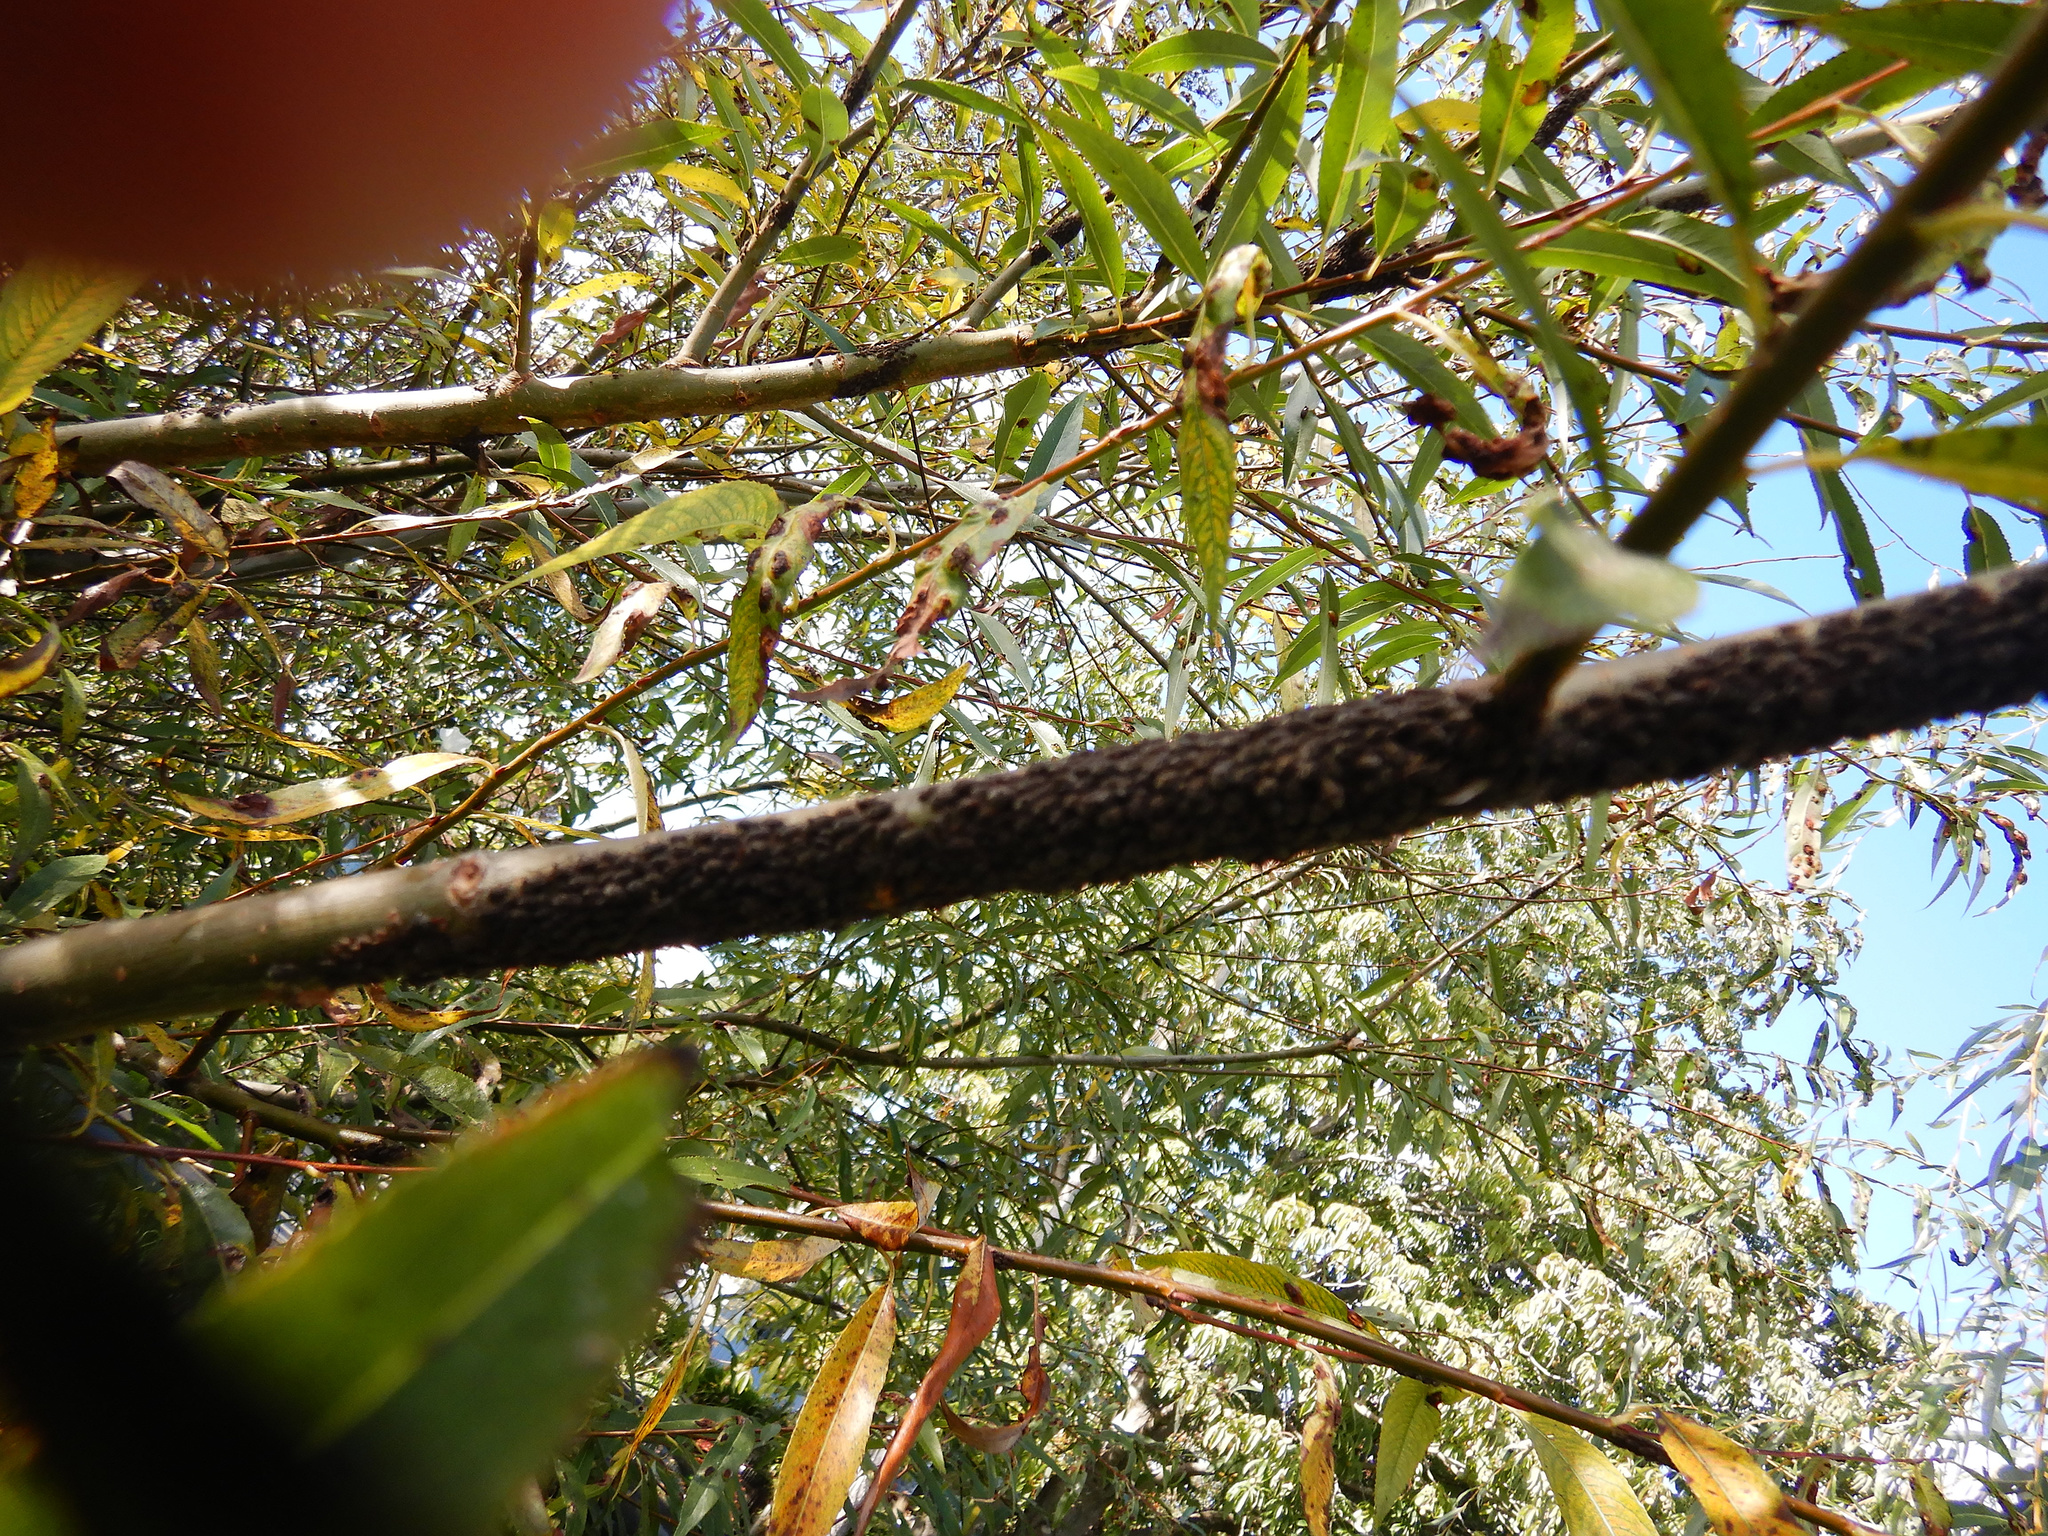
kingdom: Animalia
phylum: Arthropoda
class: Insecta
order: Hemiptera
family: Aphididae
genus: Tuberolachnus
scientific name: Tuberolachnus salignus
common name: Giant willow aphid
